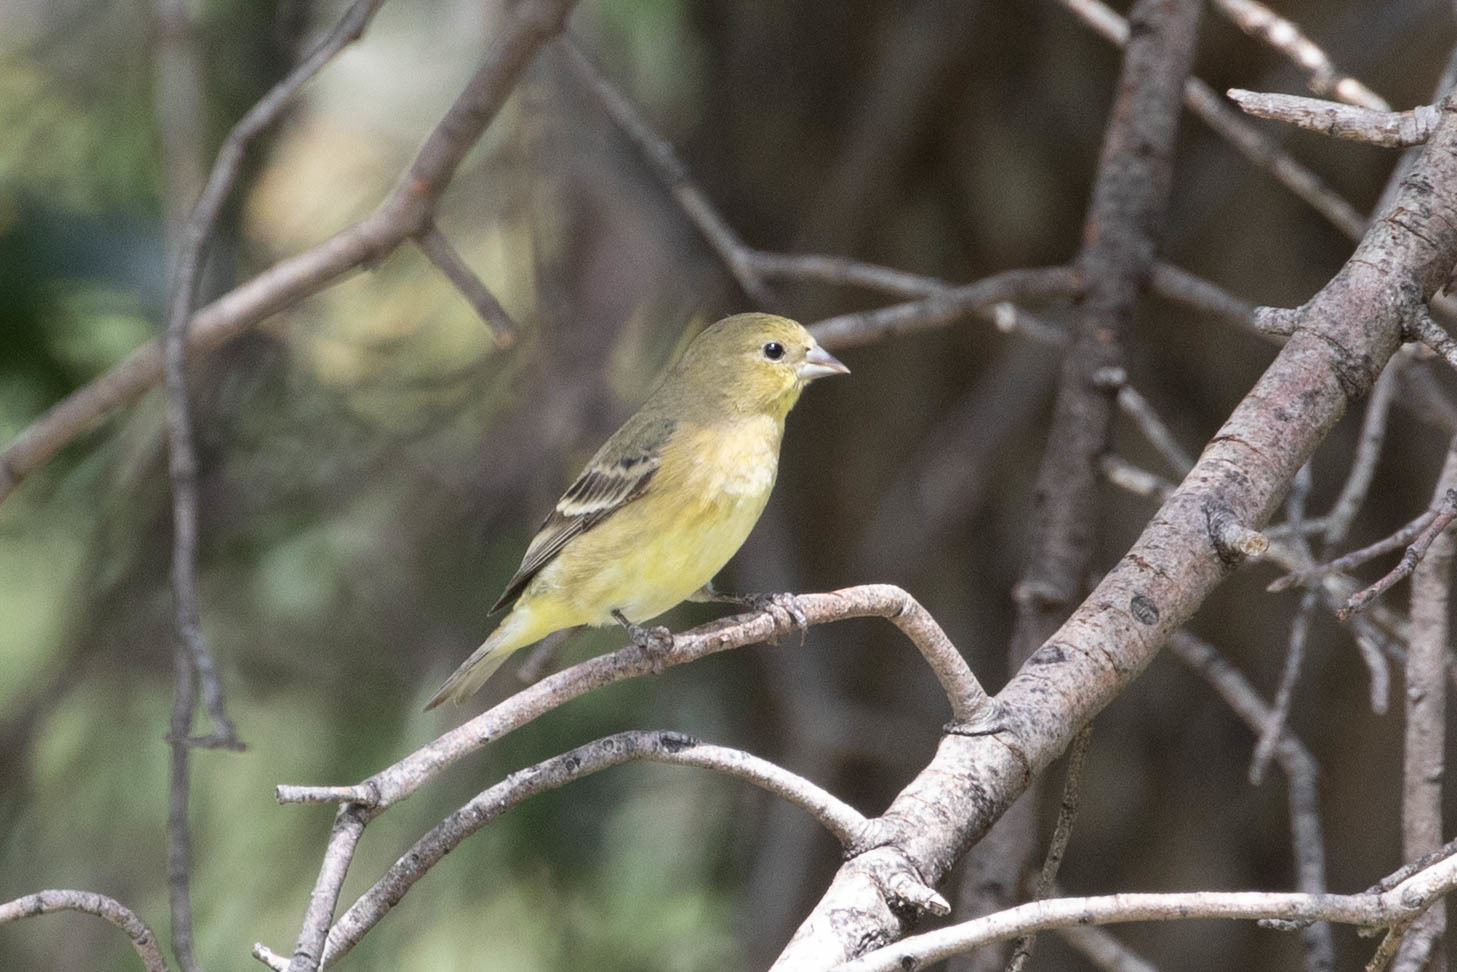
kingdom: Animalia
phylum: Chordata
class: Aves
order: Passeriformes
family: Fringillidae
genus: Spinus
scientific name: Spinus psaltria
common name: Lesser goldfinch
